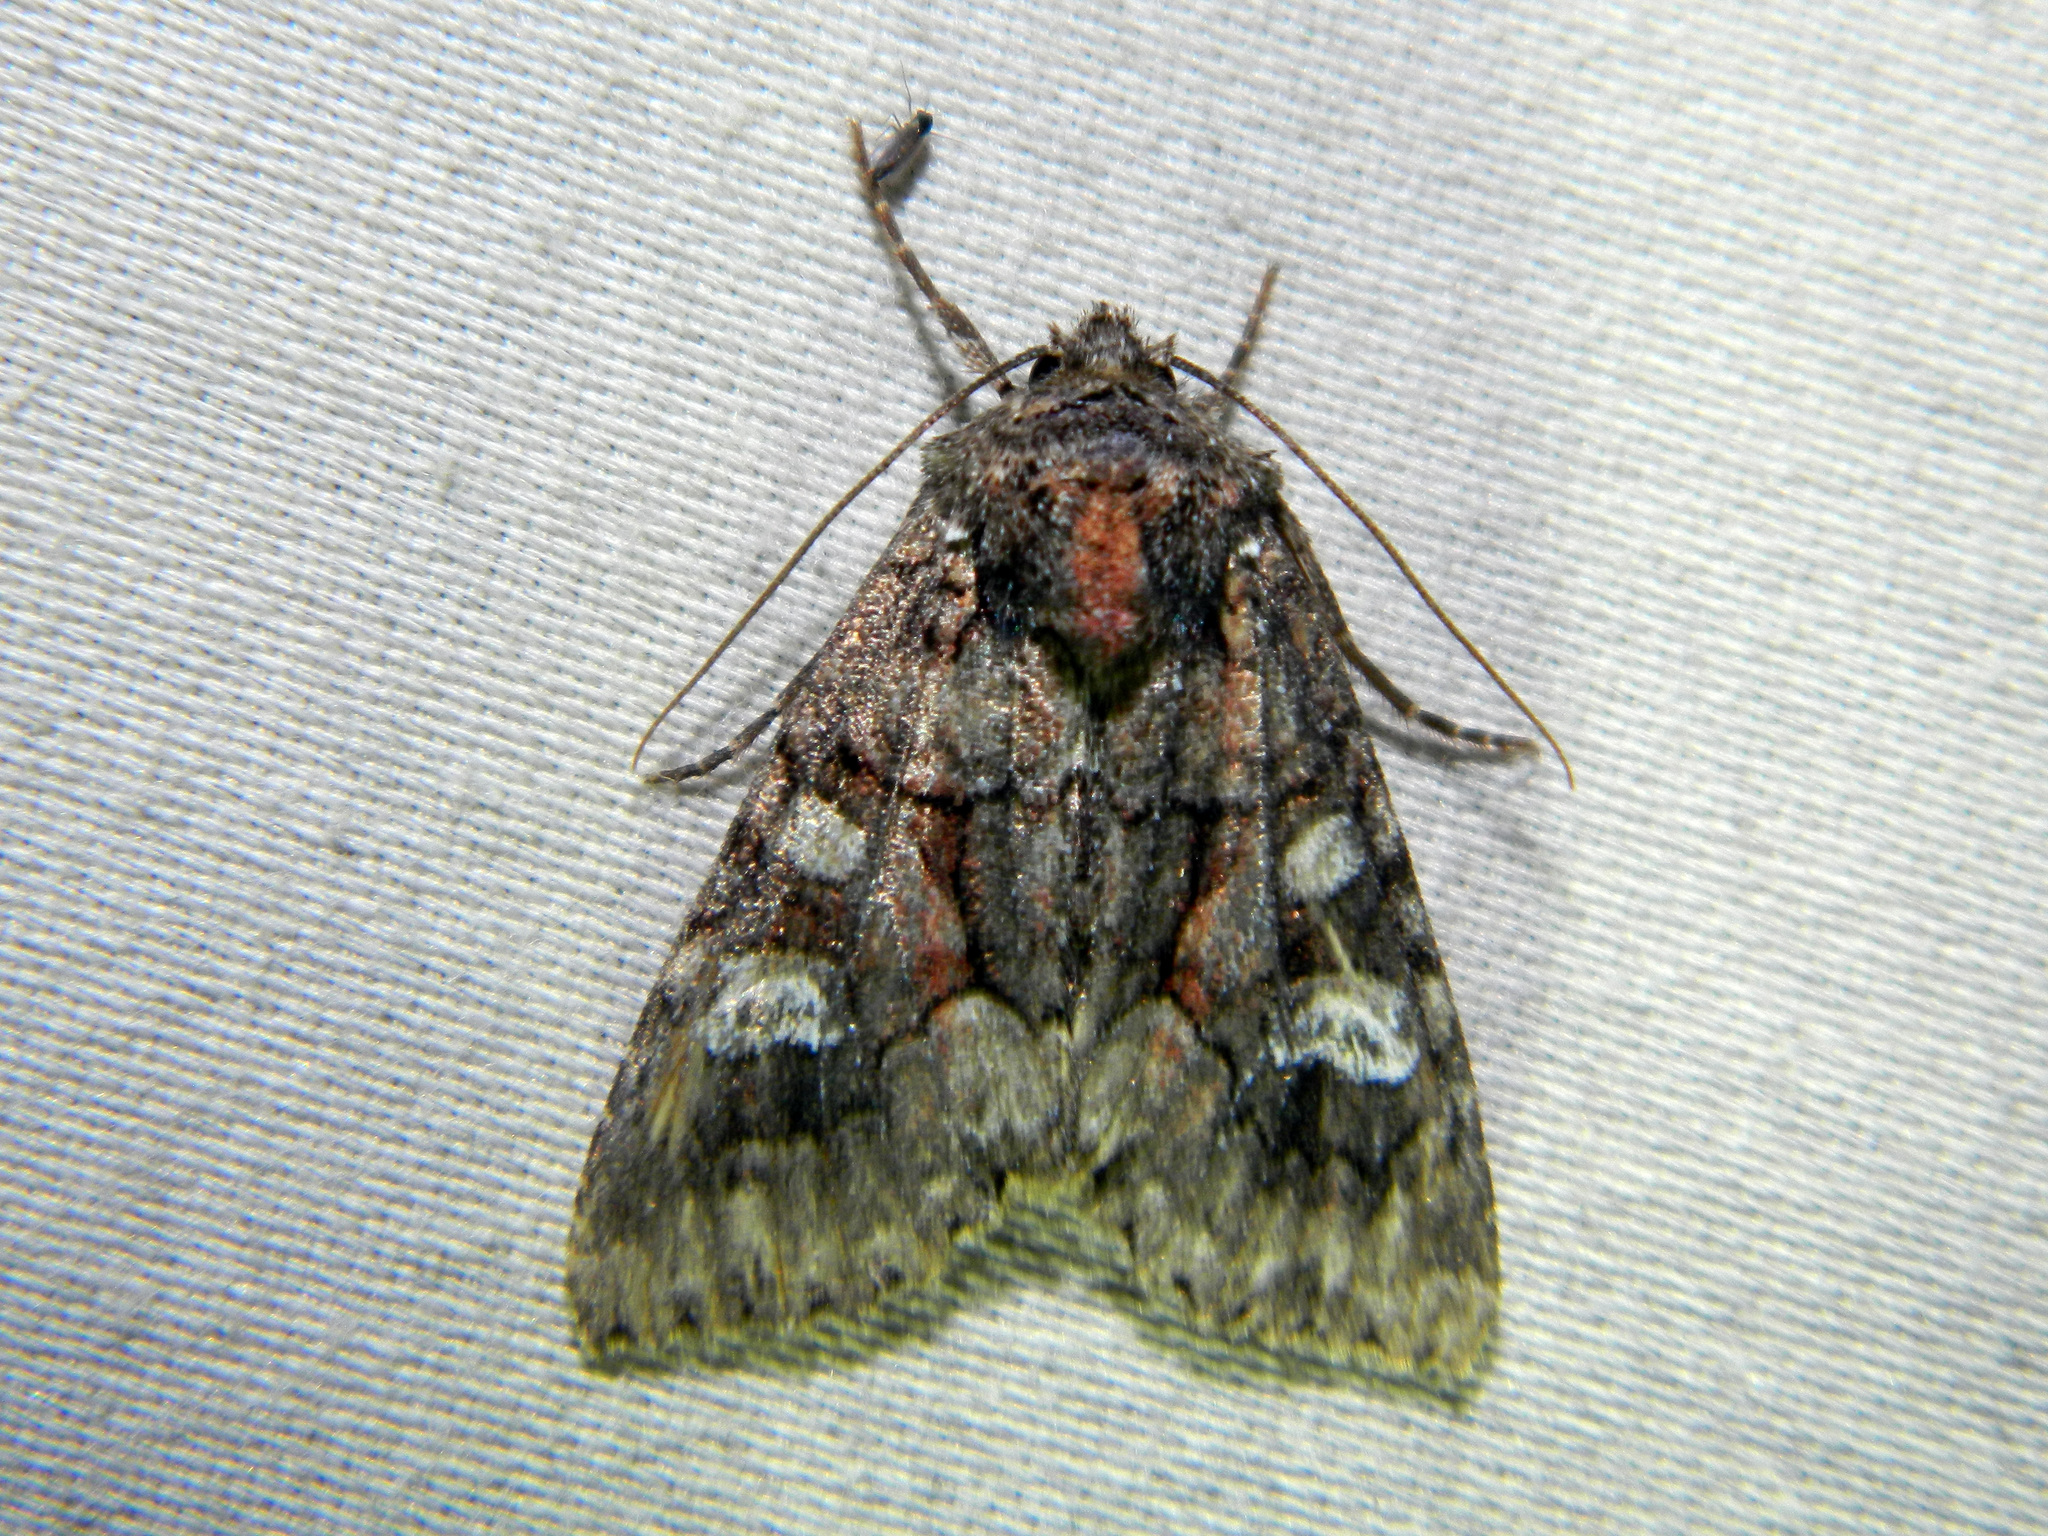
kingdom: Animalia
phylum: Arthropoda
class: Insecta
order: Lepidoptera
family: Noctuidae
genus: Fishia
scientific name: Fishia illocata
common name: Wandering brocade moth
